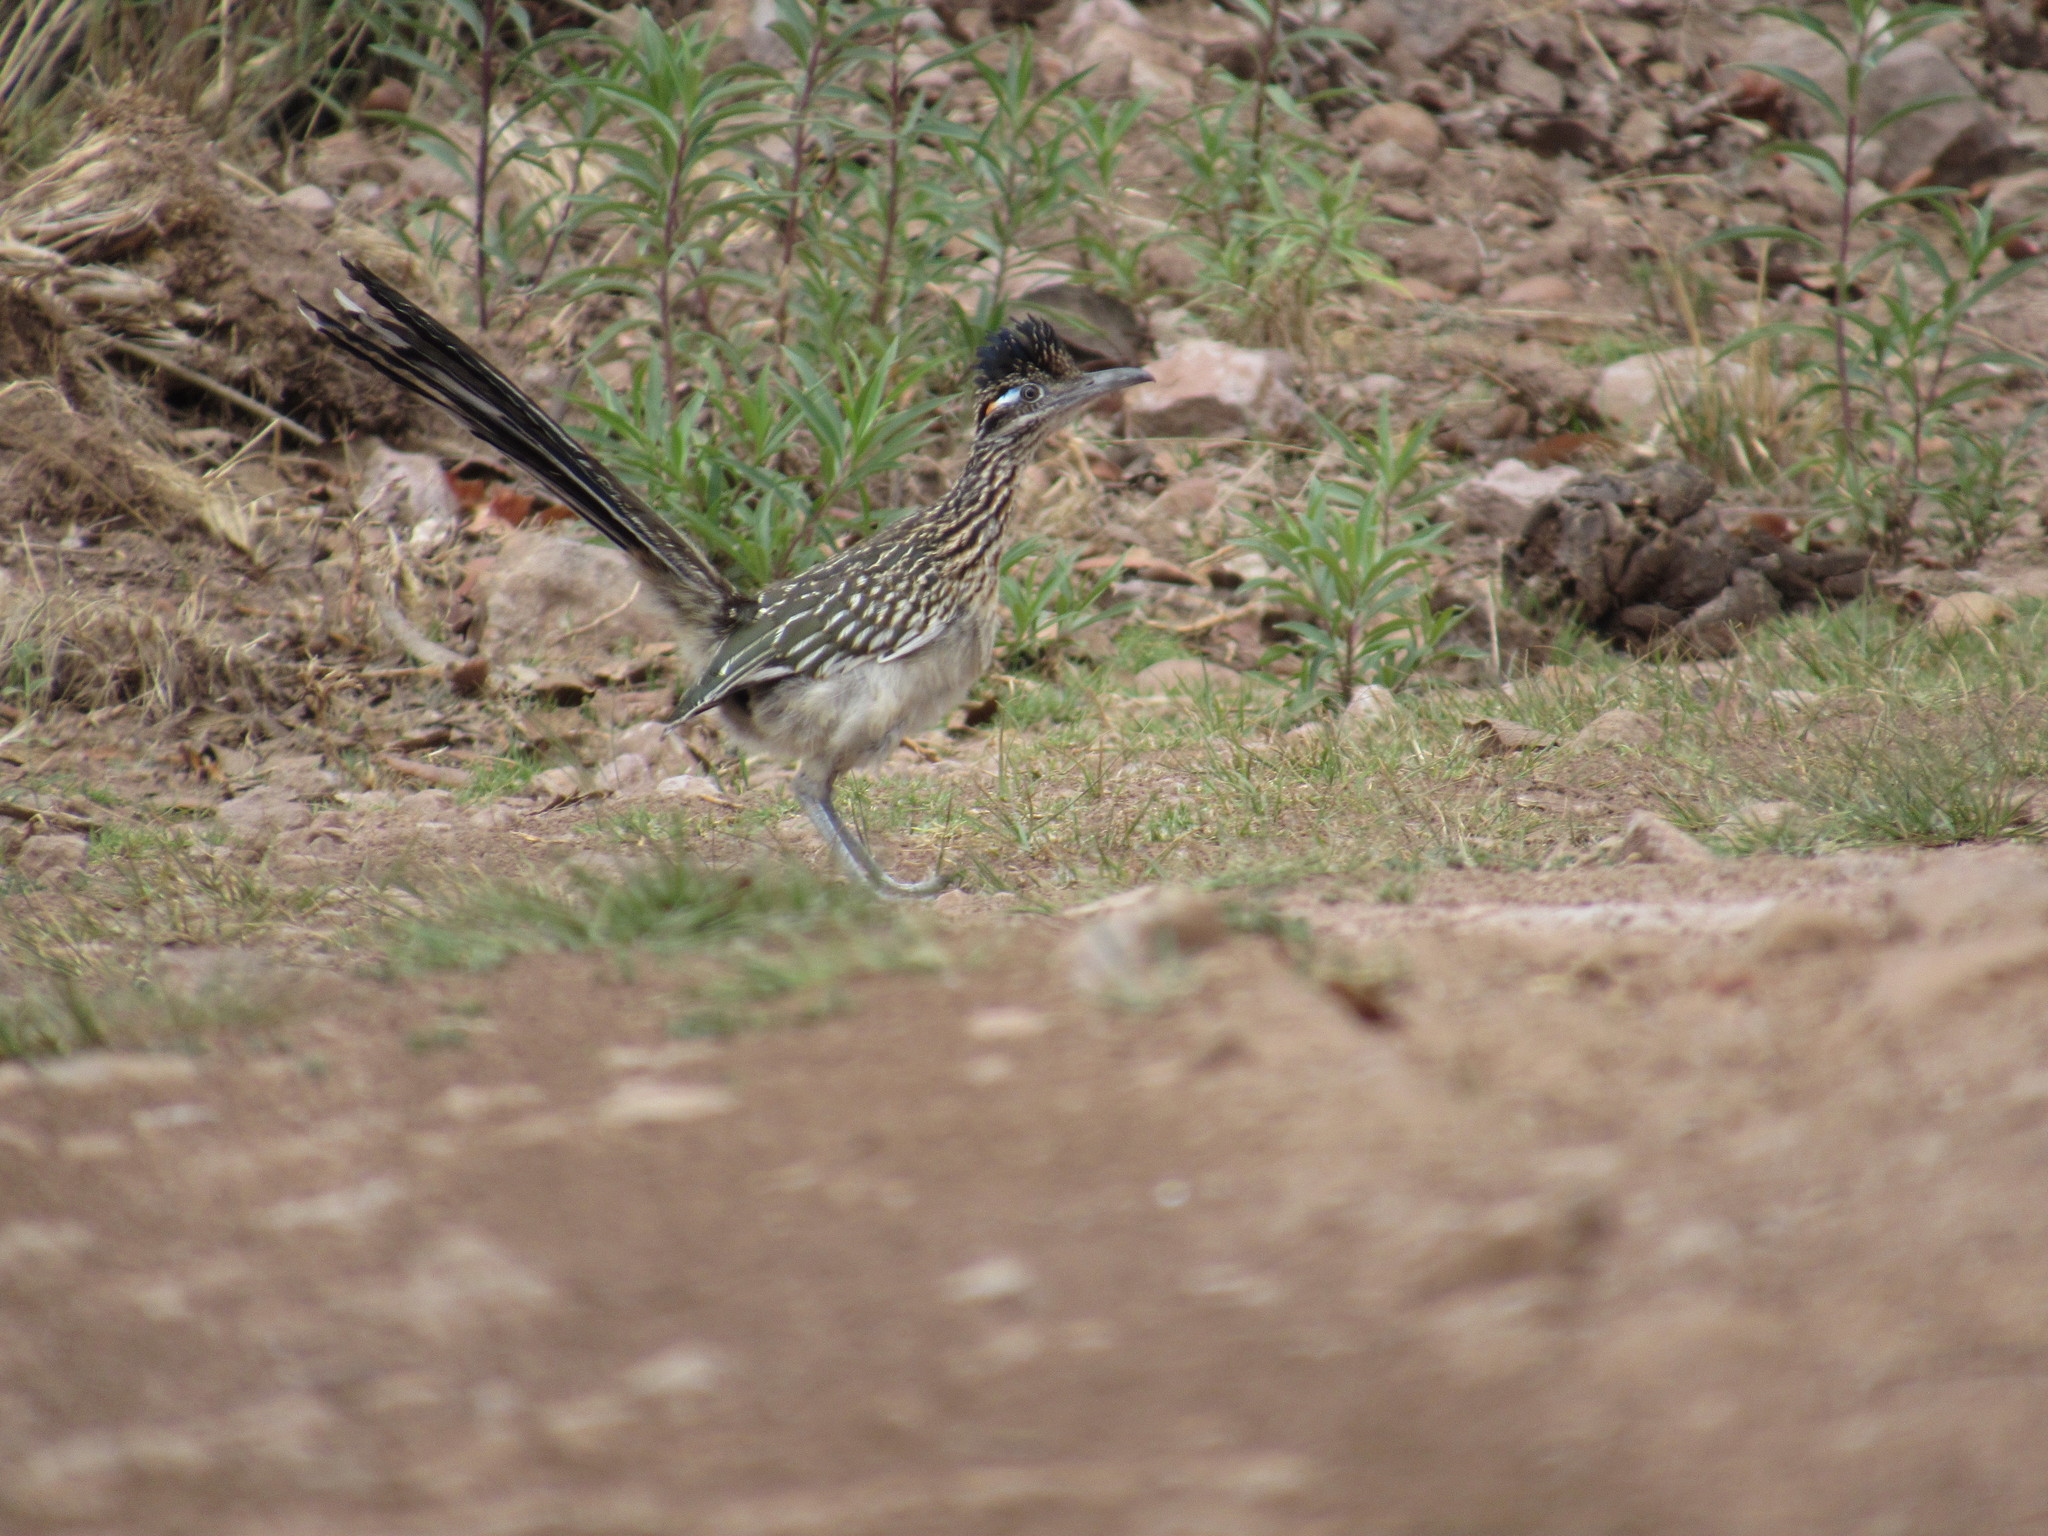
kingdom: Animalia
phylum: Chordata
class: Aves
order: Cuculiformes
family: Cuculidae
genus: Geococcyx
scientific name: Geococcyx californianus
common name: Greater roadrunner
